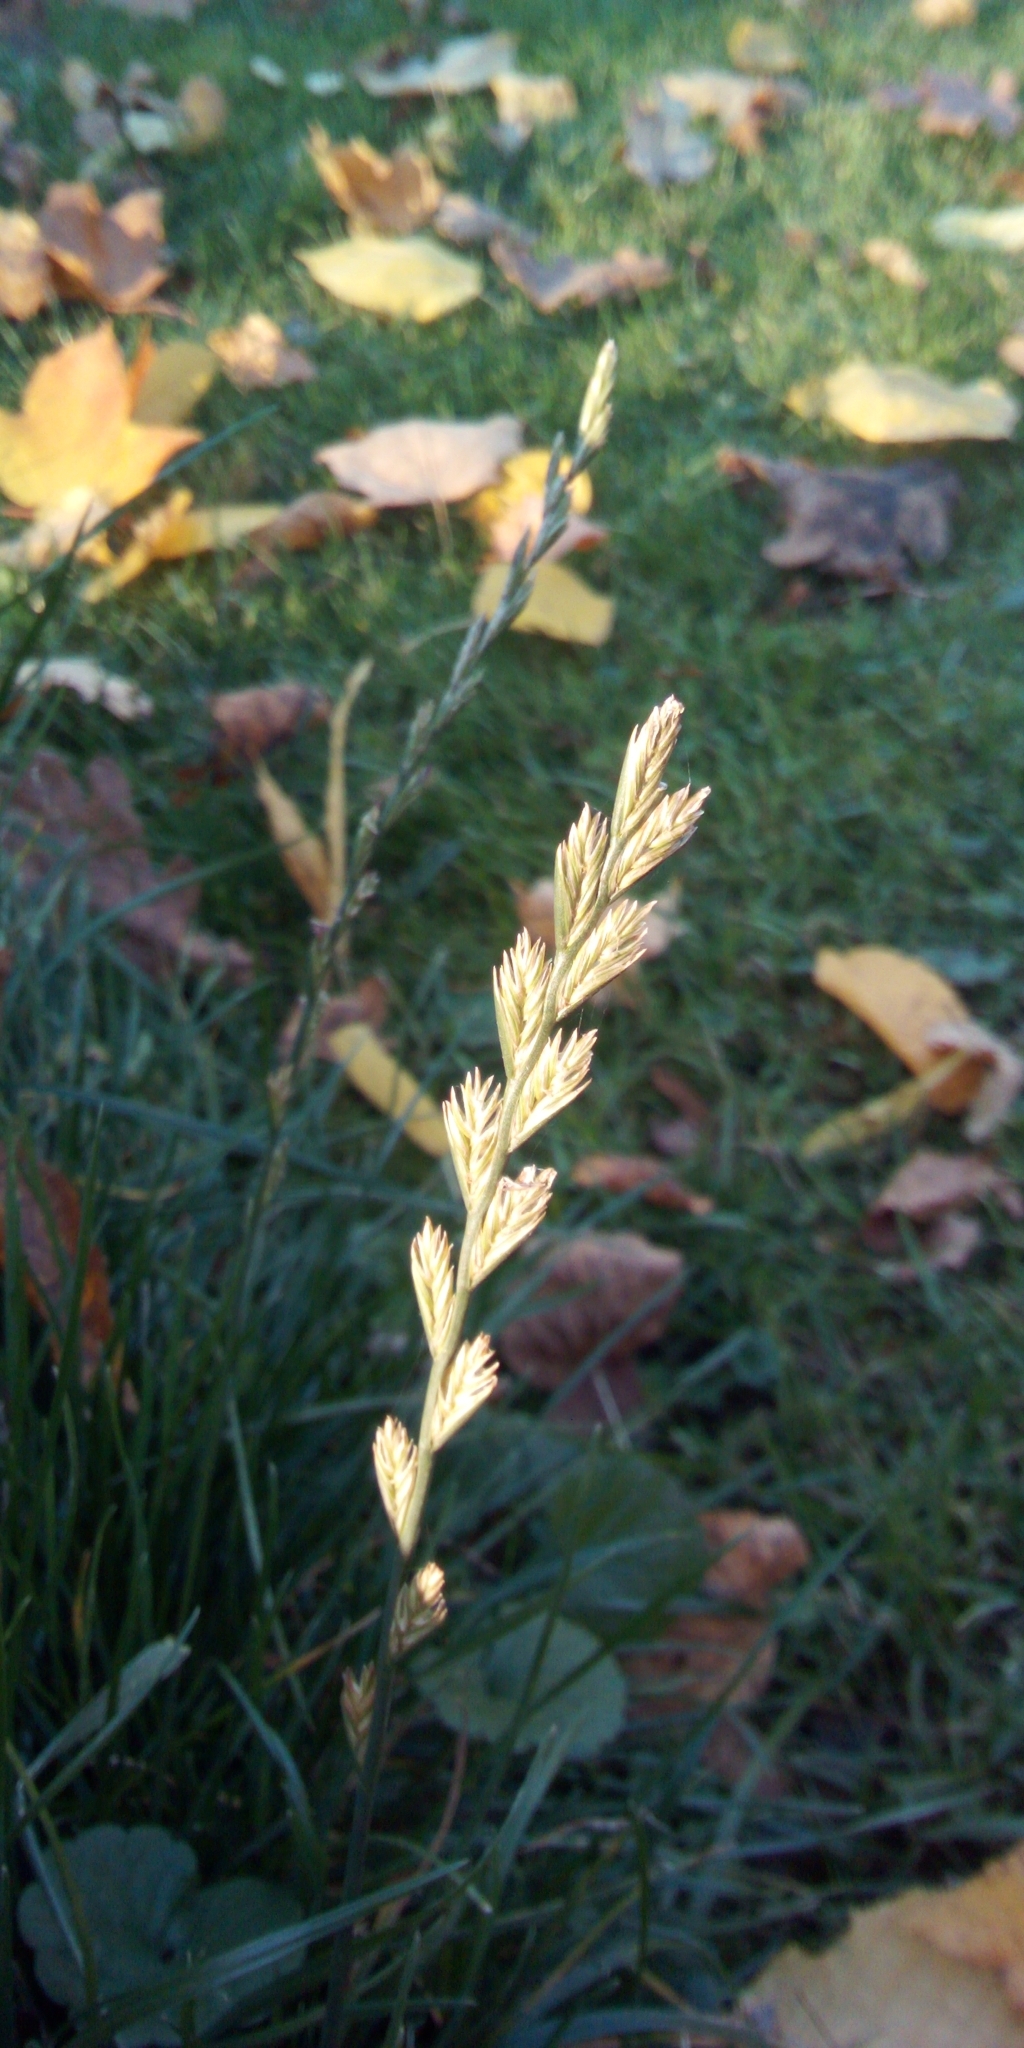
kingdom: Plantae
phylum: Tracheophyta
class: Liliopsida
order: Poales
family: Poaceae
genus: Lolium
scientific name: Lolium perenne
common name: Perennial ryegrass
